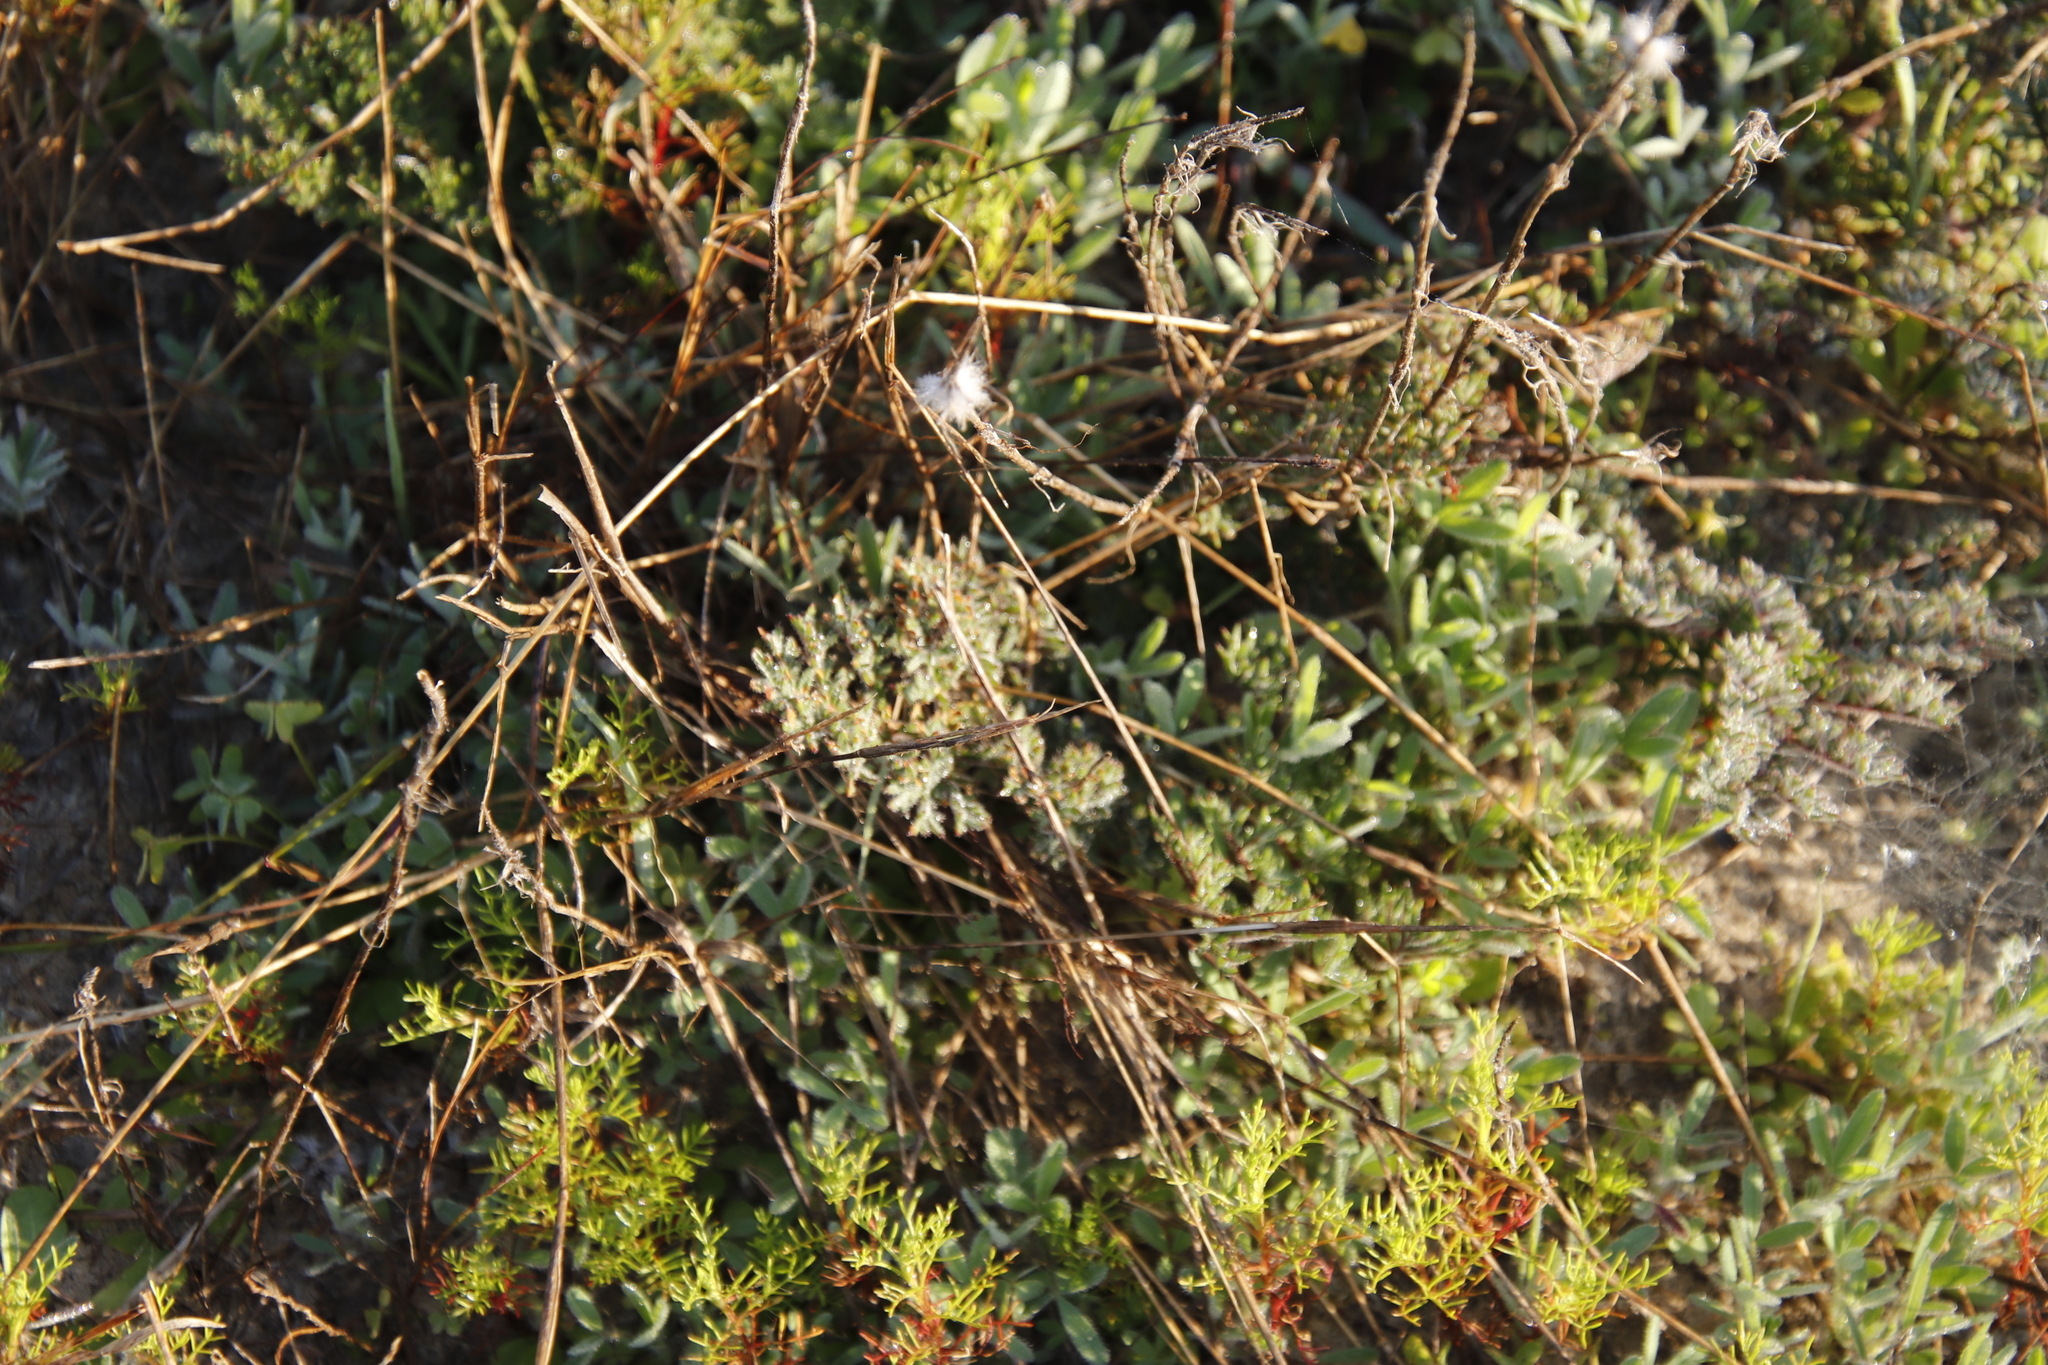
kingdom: Plantae
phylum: Tracheophyta
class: Magnoliopsida
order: Geraniales
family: Geraniaceae
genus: Pelargonium
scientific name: Pelargonium triste
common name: Night-scent pelargonium
